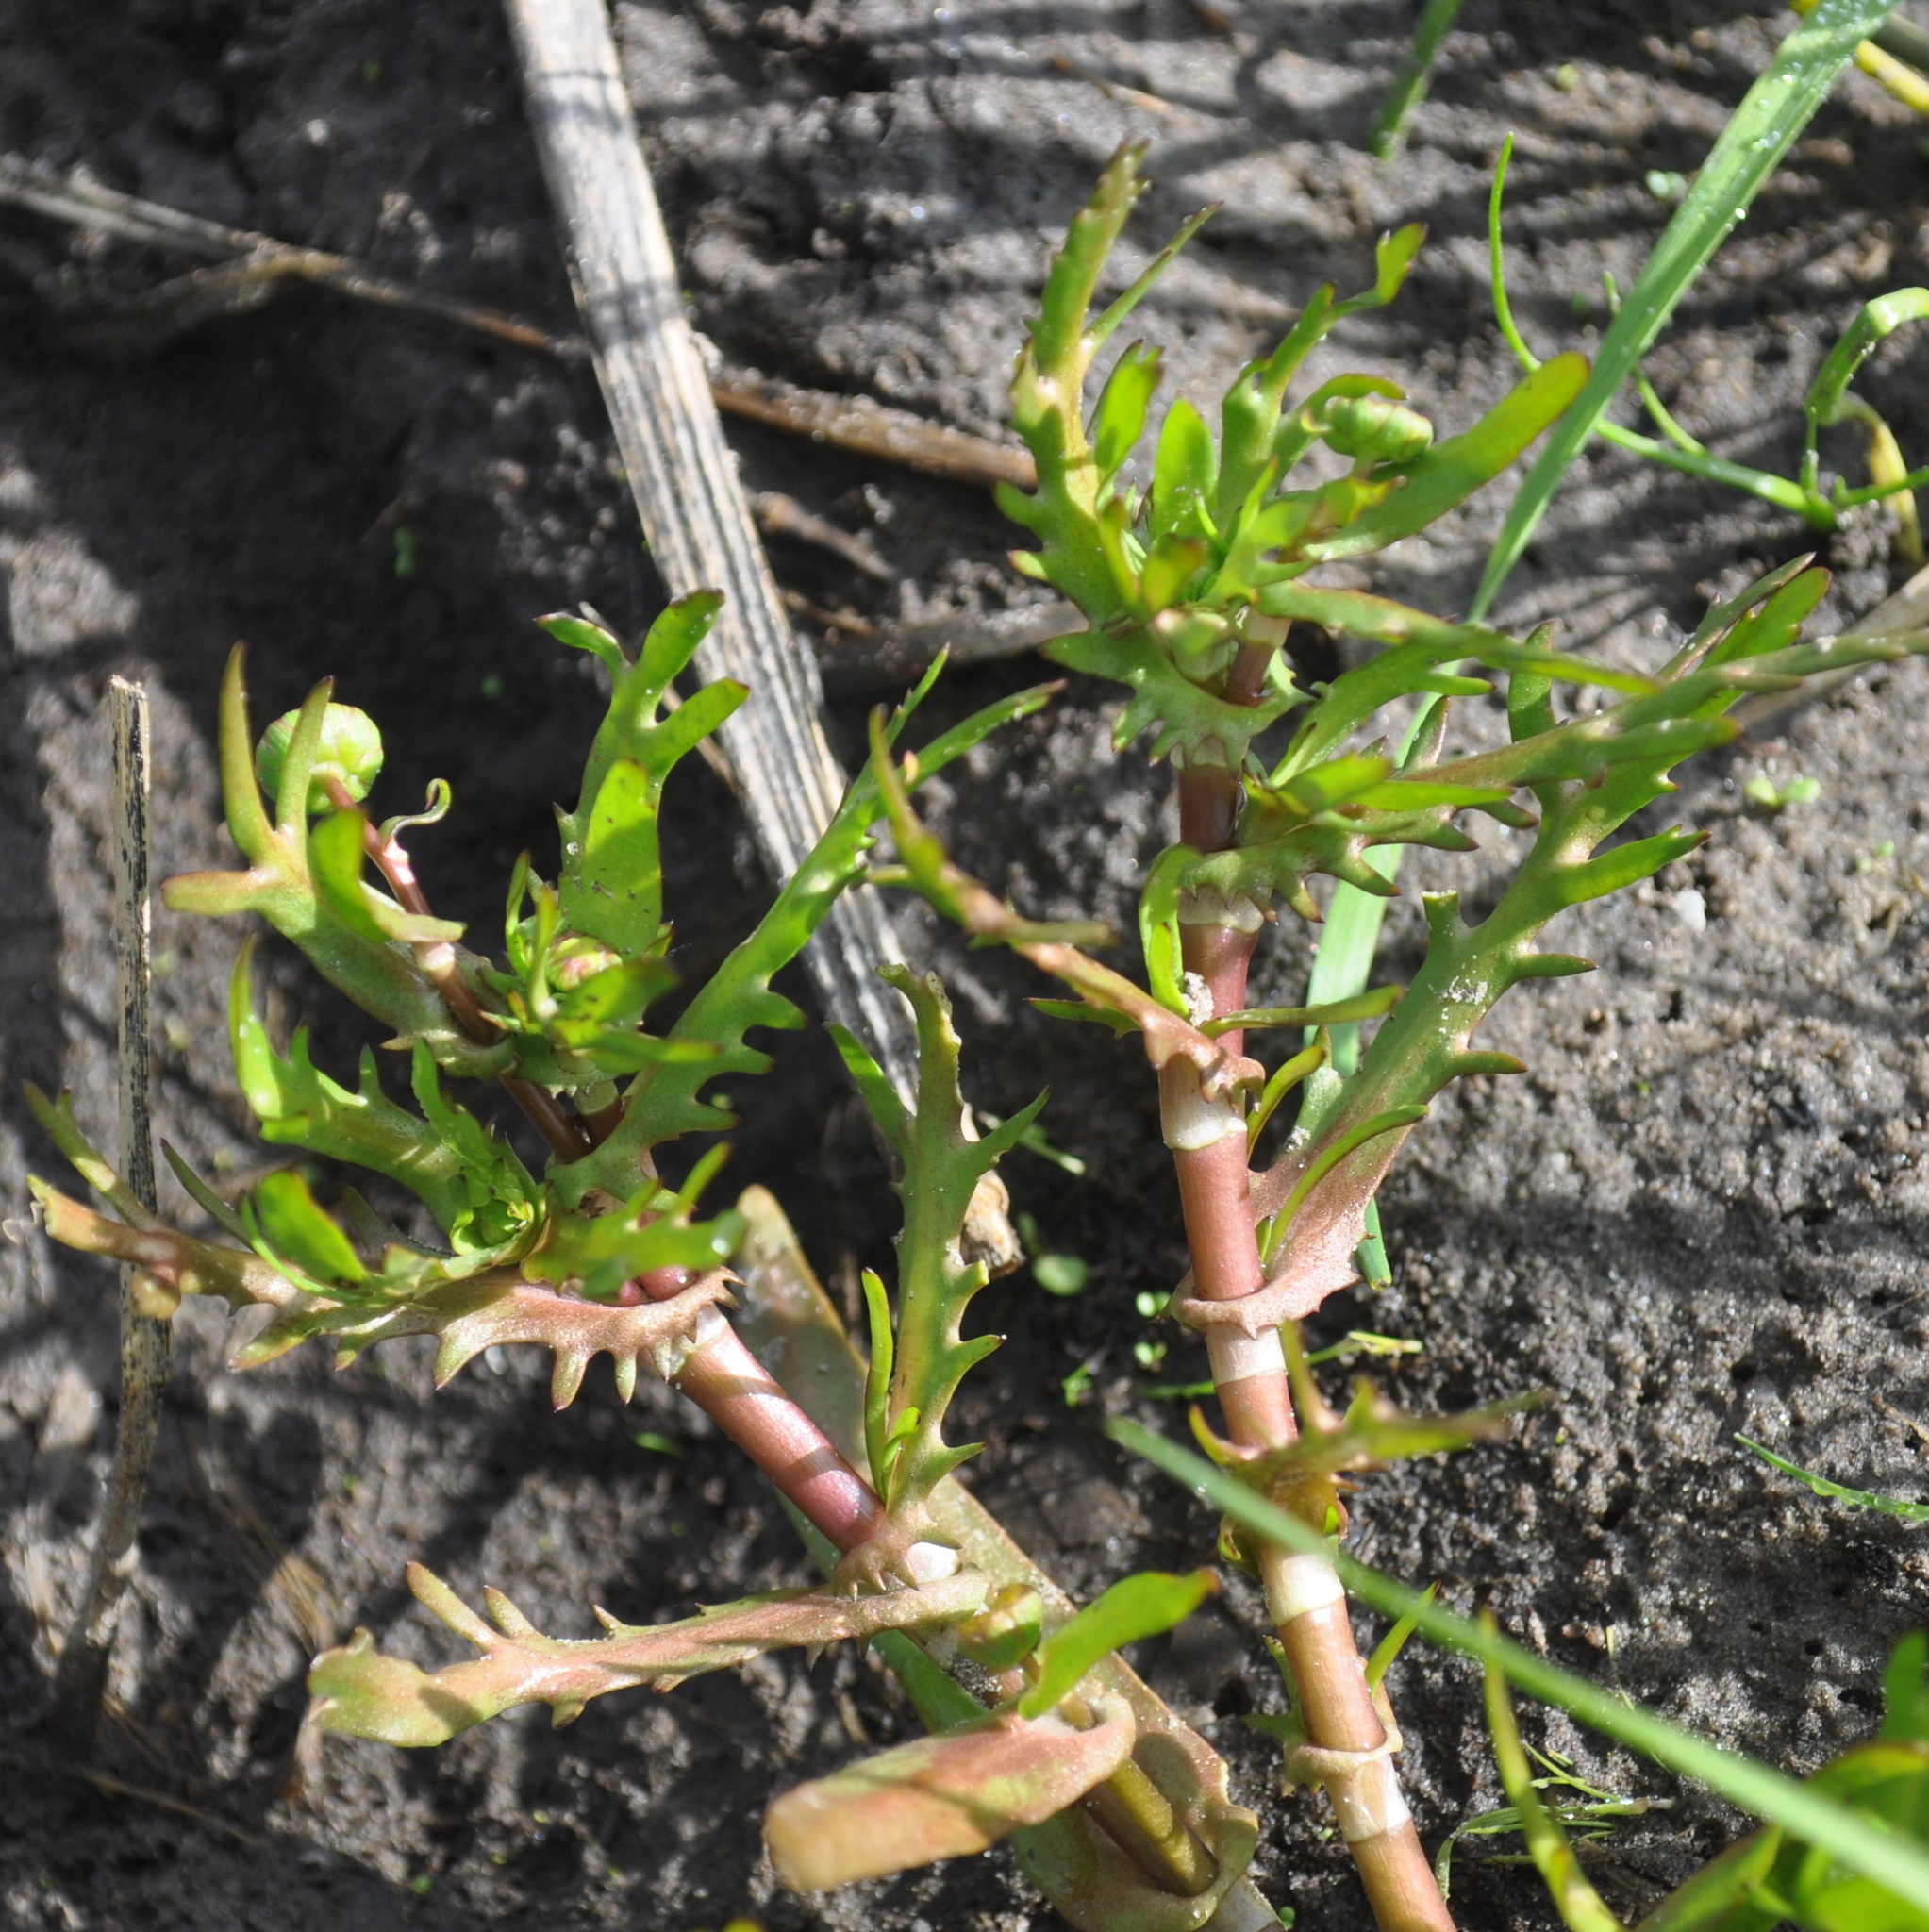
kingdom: Plantae
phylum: Tracheophyta
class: Magnoliopsida
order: Asterales
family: Asteraceae
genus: Cotula
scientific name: Cotula coronopifolia
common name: Buttonweed
